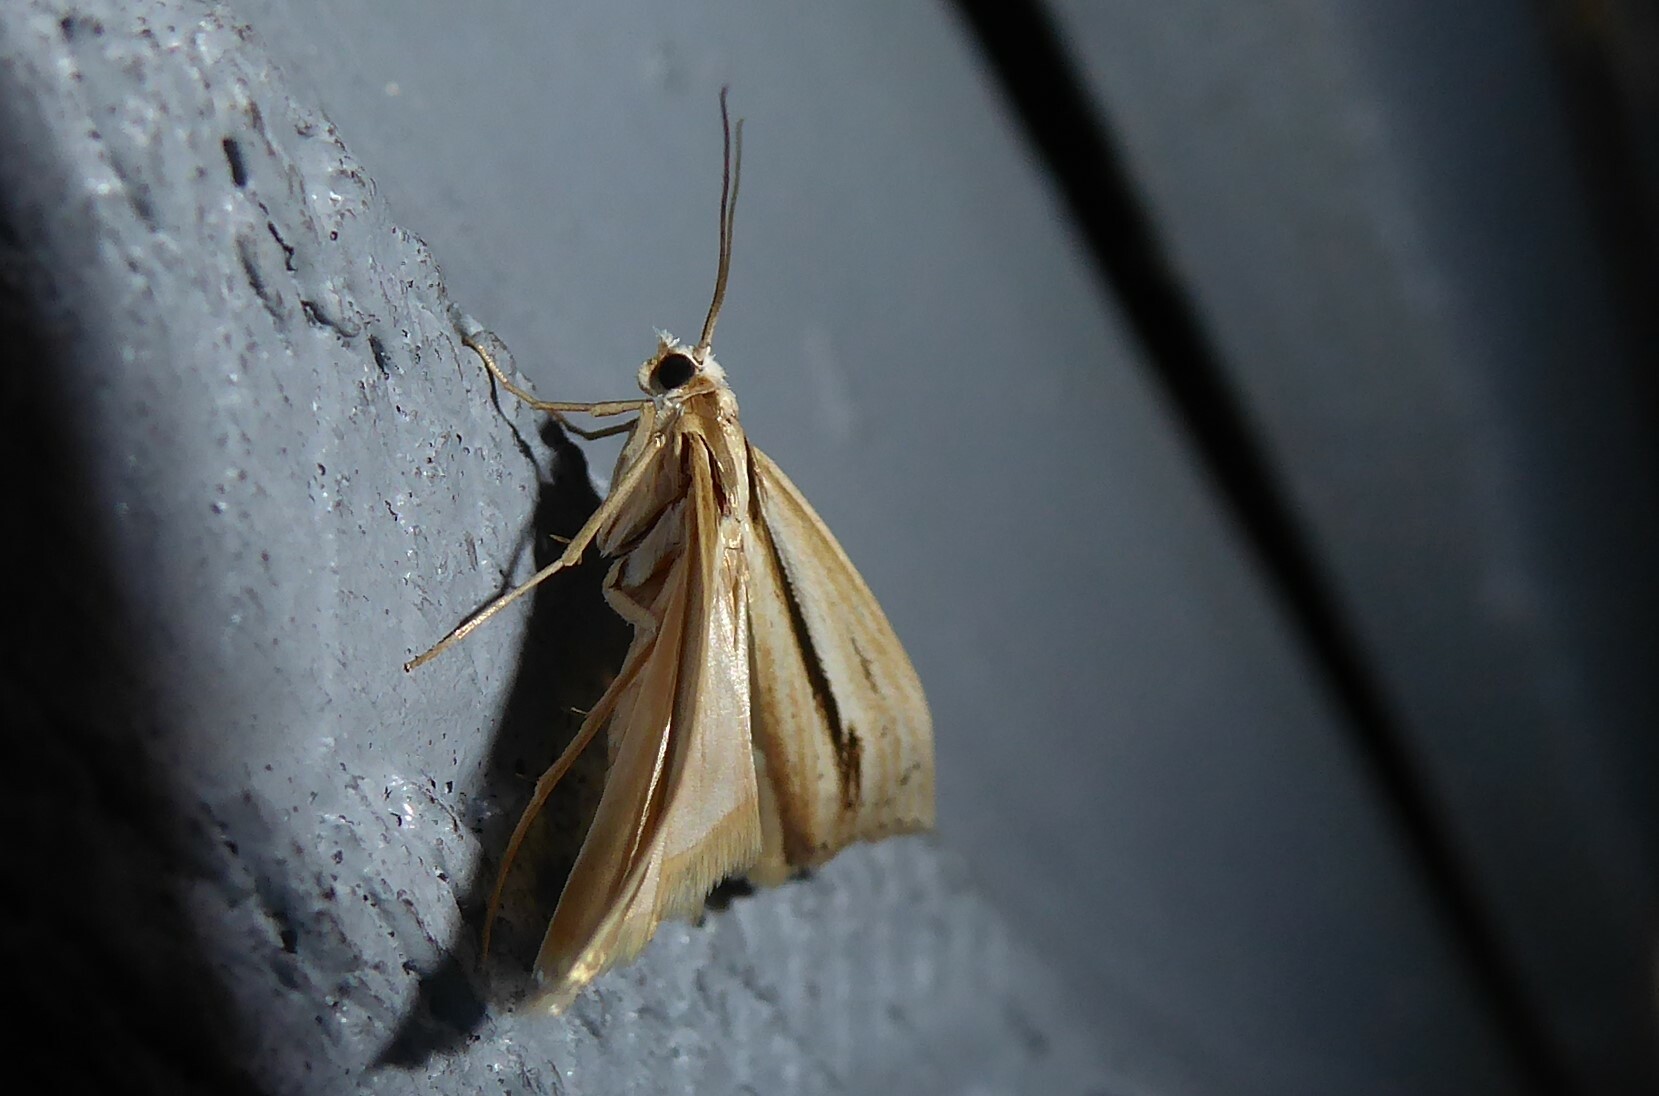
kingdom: Animalia
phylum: Arthropoda
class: Insecta
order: Lepidoptera
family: Crambidae
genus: Orocrambus
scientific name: Orocrambus ramosellus
